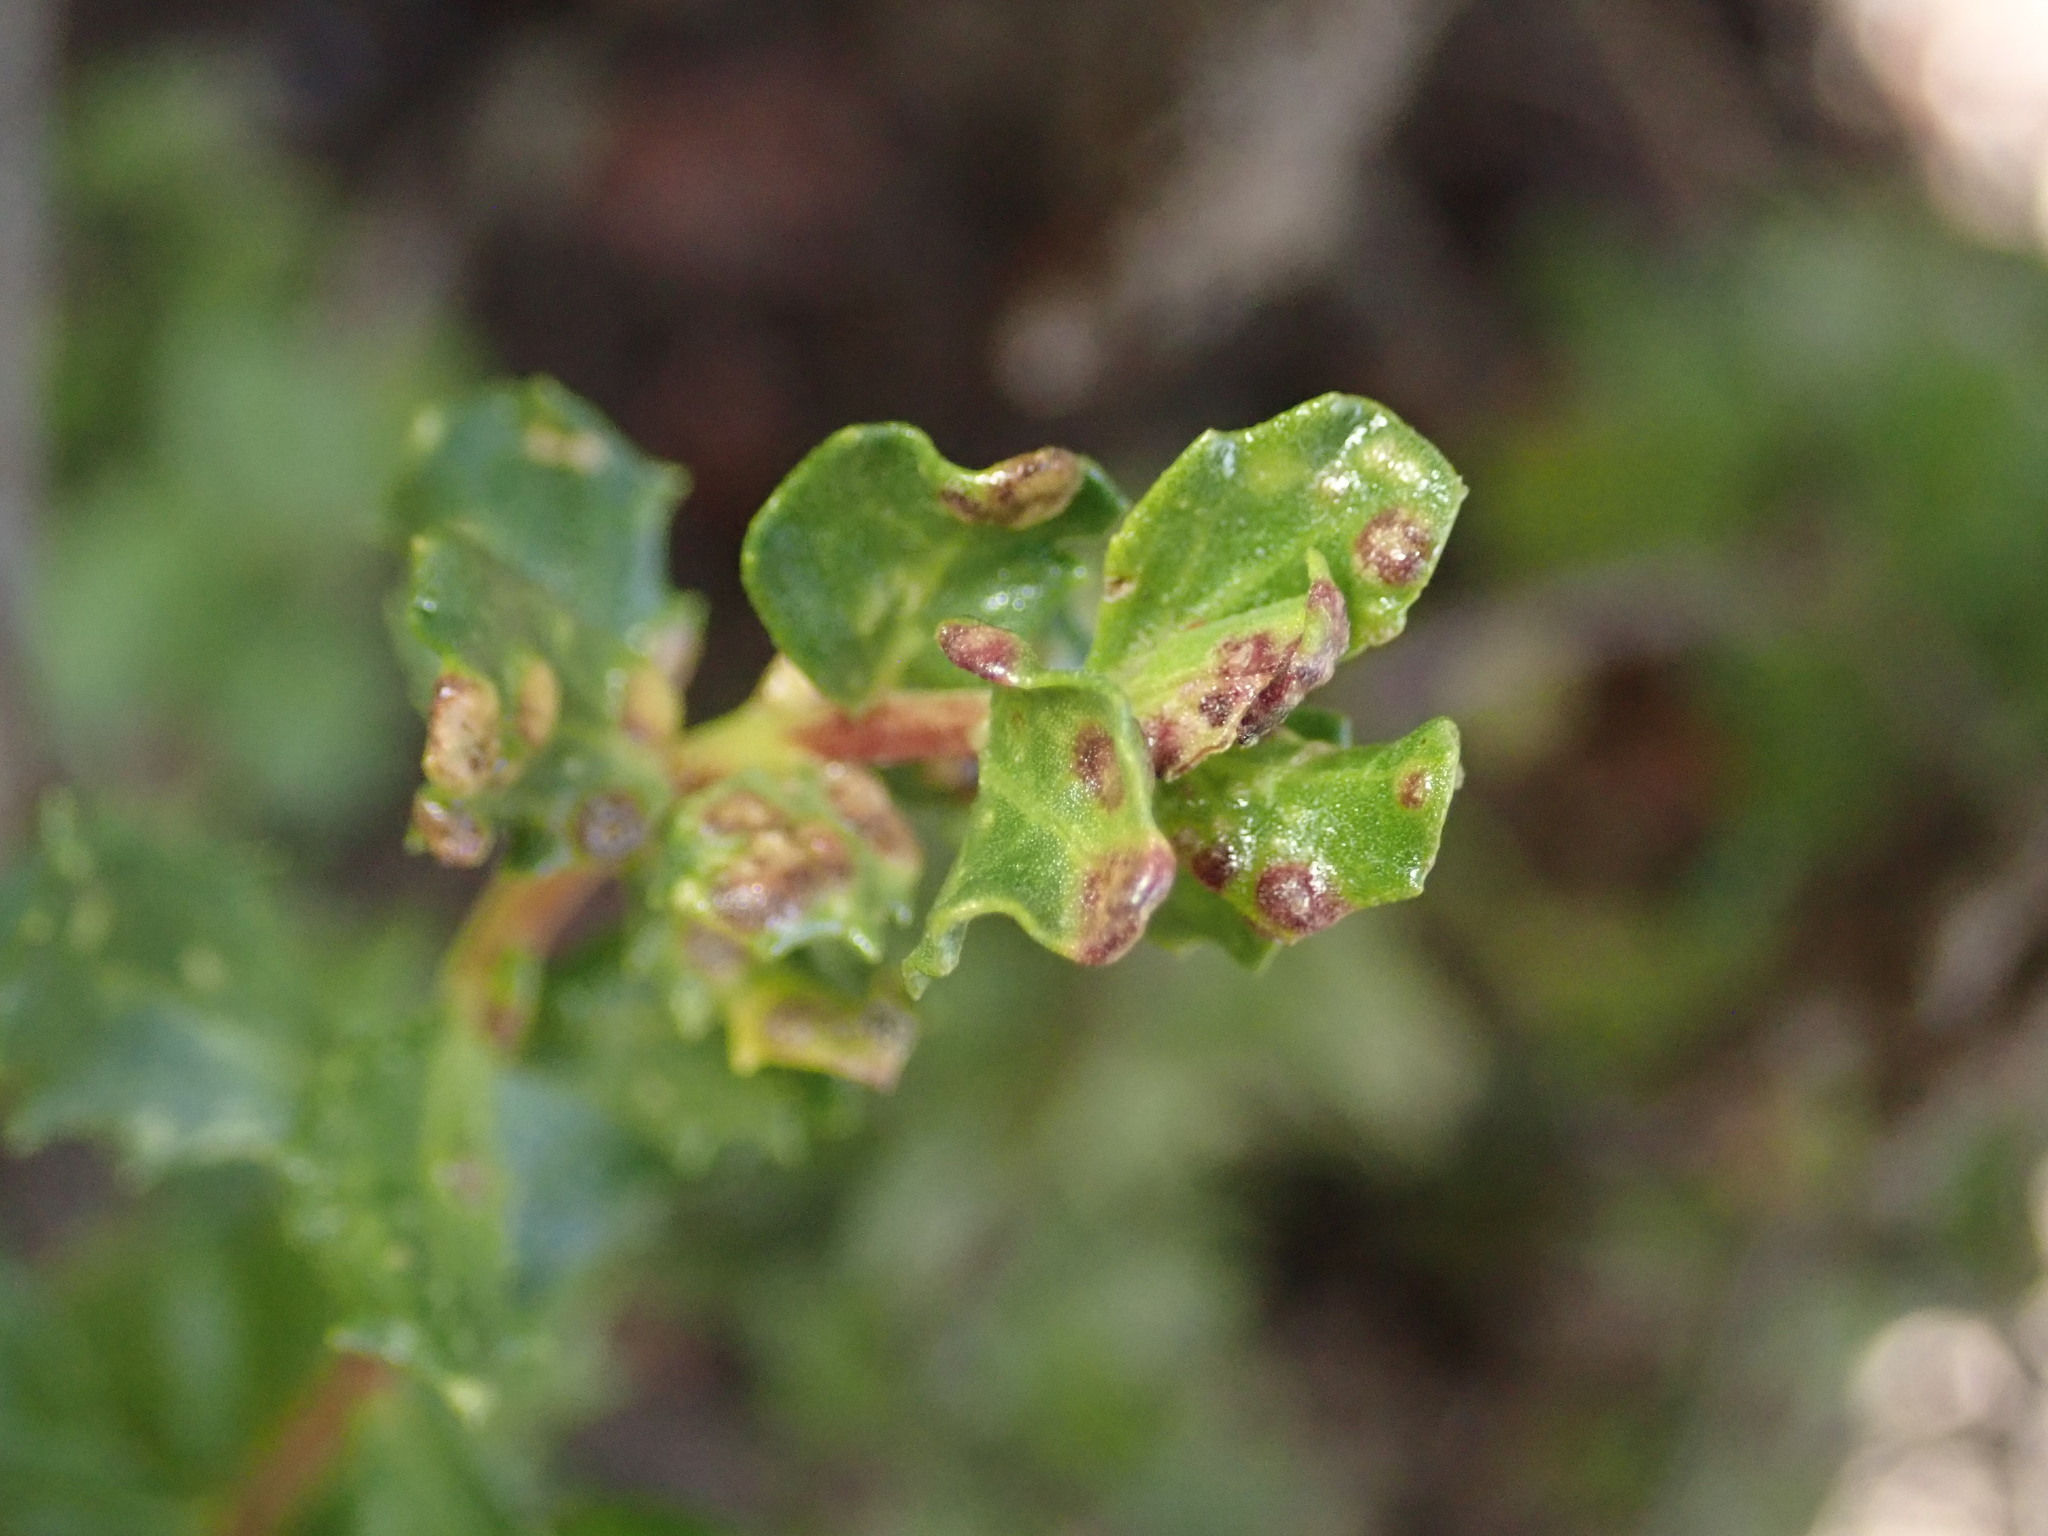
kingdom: Animalia
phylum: Arthropoda
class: Arachnida
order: Trombidiformes
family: Eriophyidae
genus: Aceria
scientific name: Aceria
